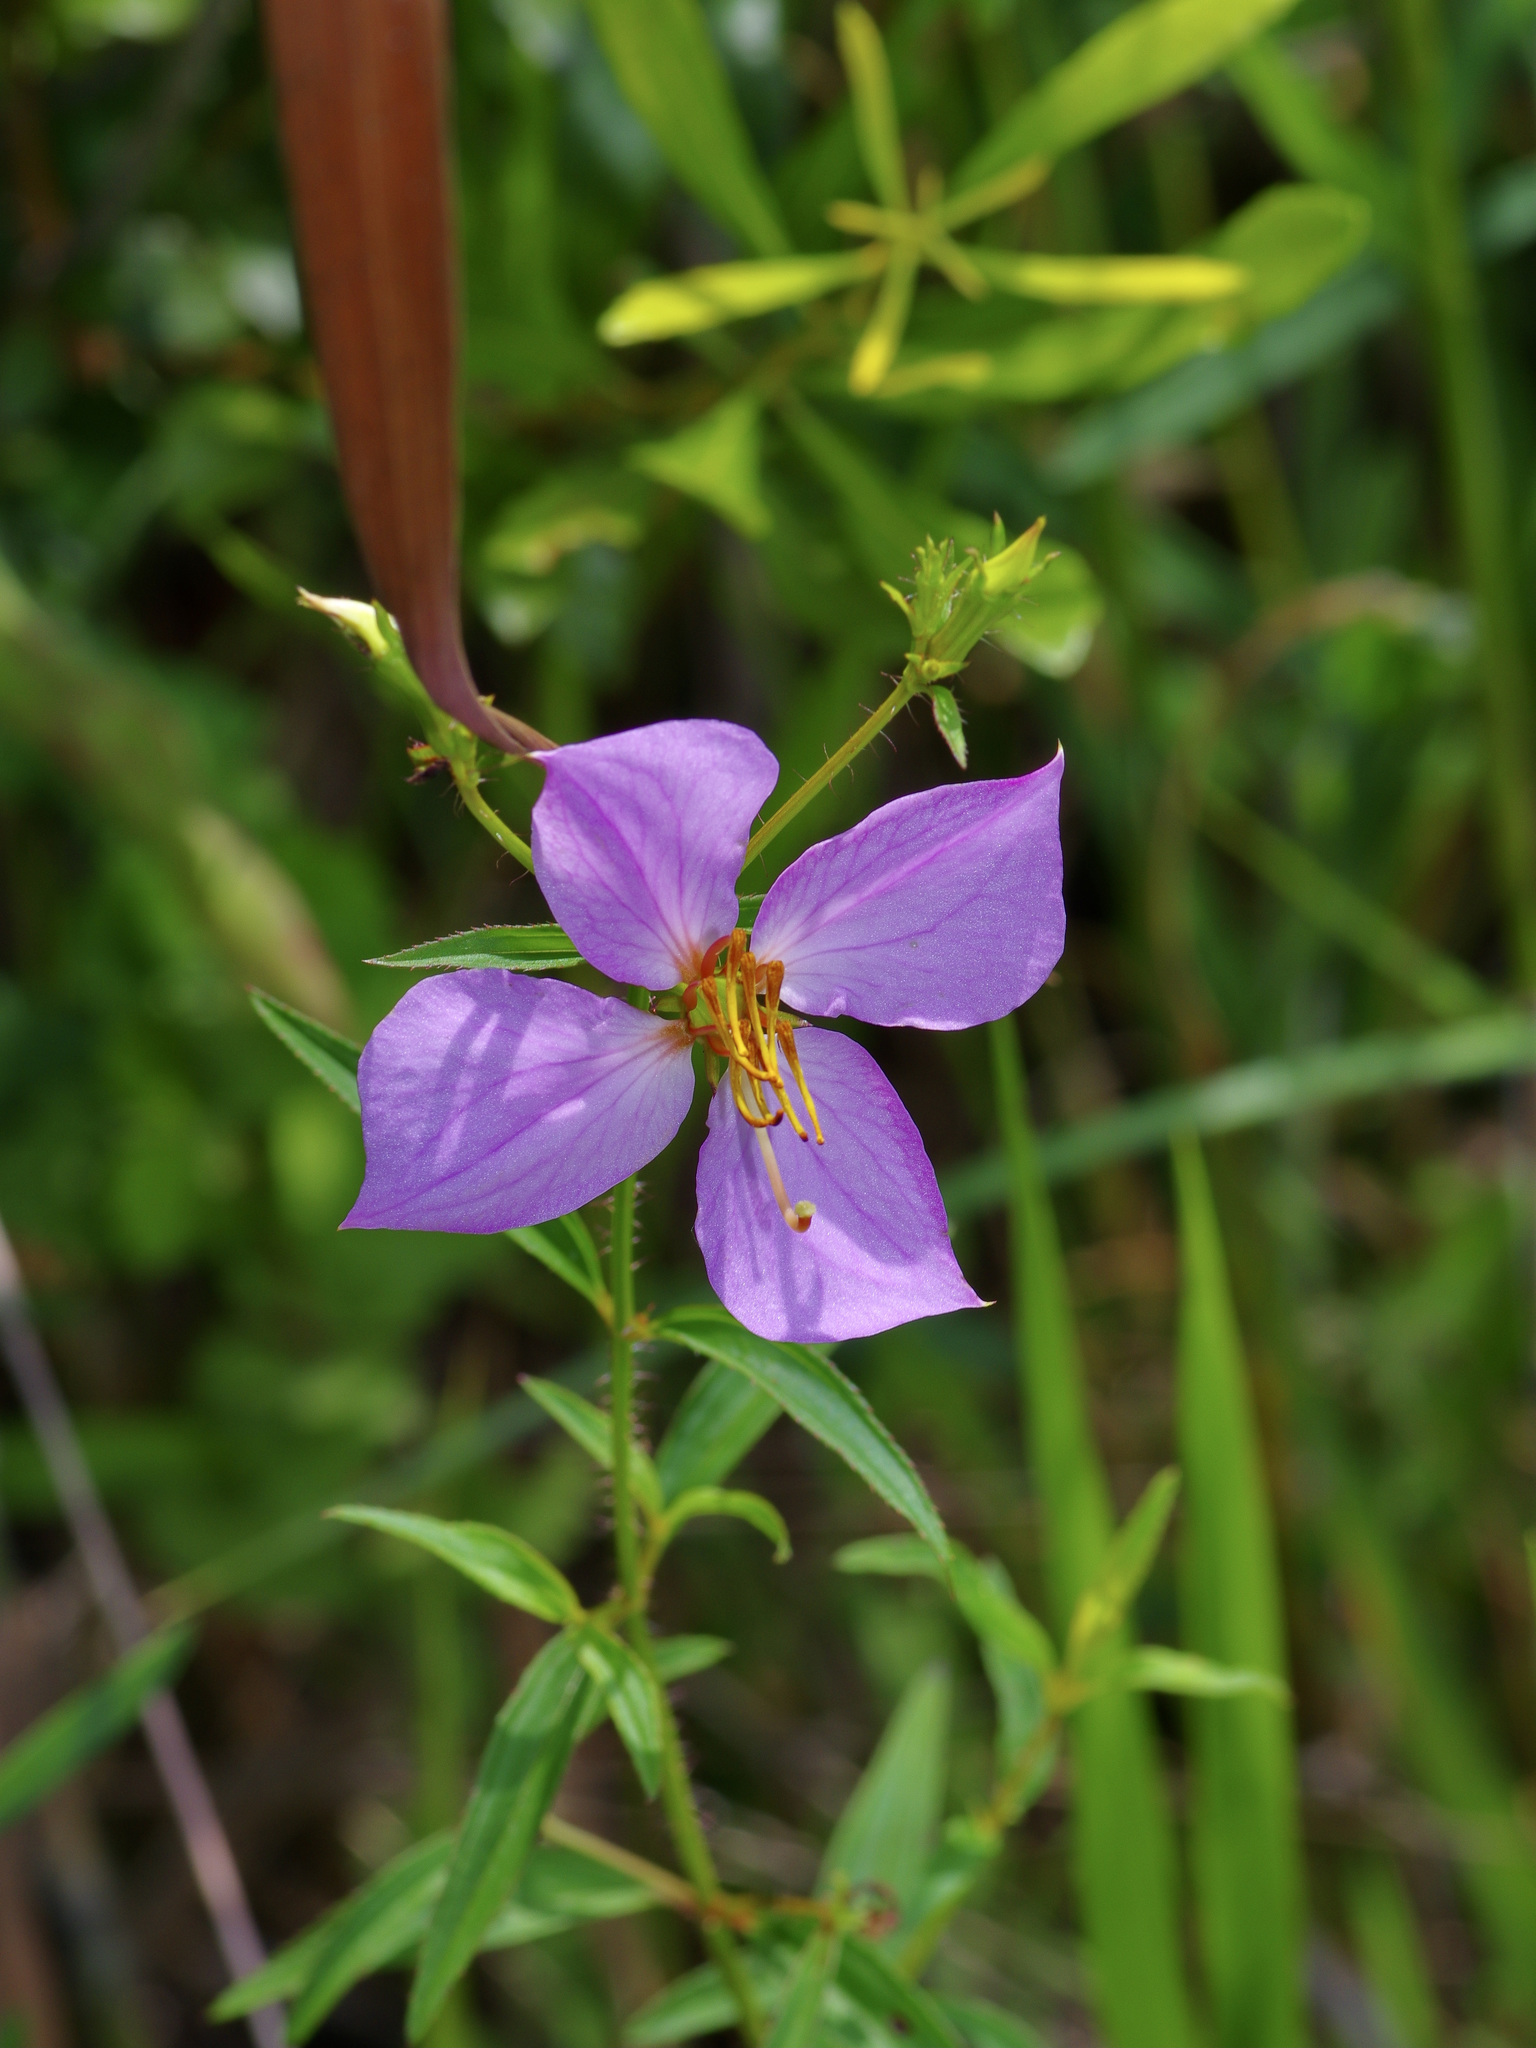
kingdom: Plantae
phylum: Tracheophyta
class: Magnoliopsida
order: Myrtales
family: Melastomataceae
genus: Rhexia
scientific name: Rhexia mariana
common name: Dull meadow-pitcher
